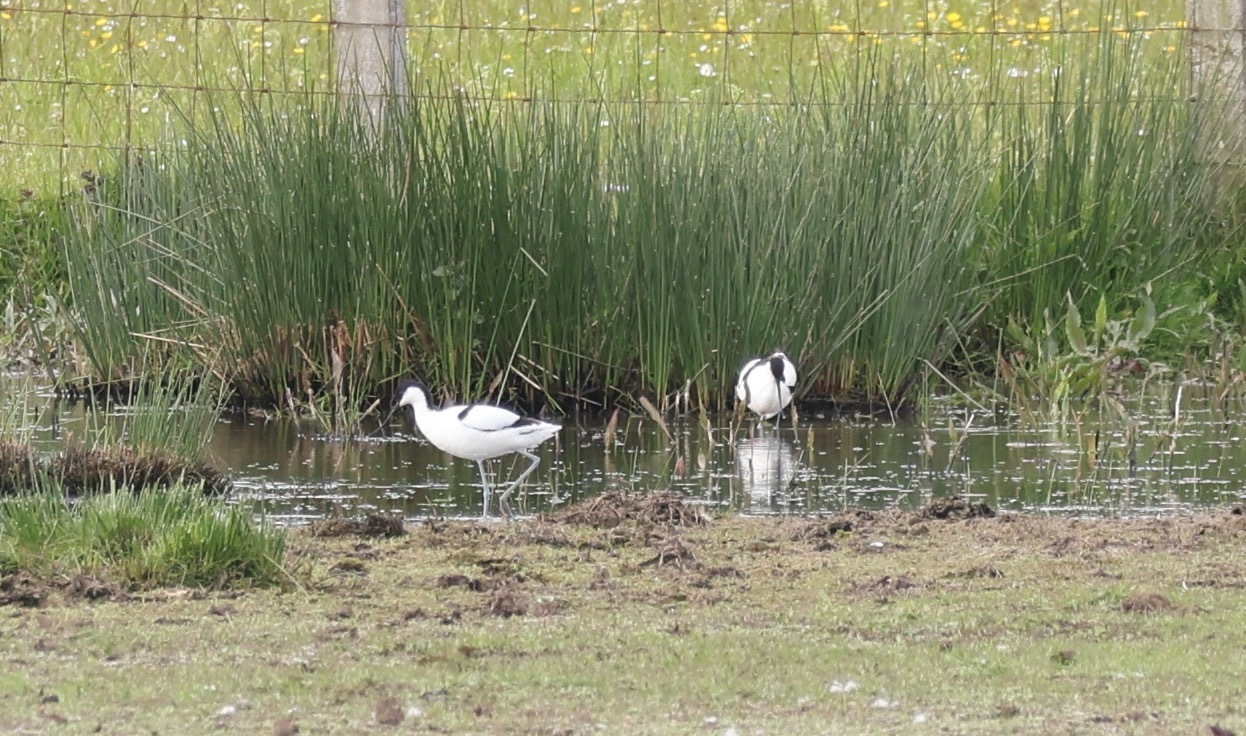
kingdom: Animalia
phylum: Chordata
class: Aves
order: Charadriiformes
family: Recurvirostridae
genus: Recurvirostra
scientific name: Recurvirostra avosetta
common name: Pied avocet
